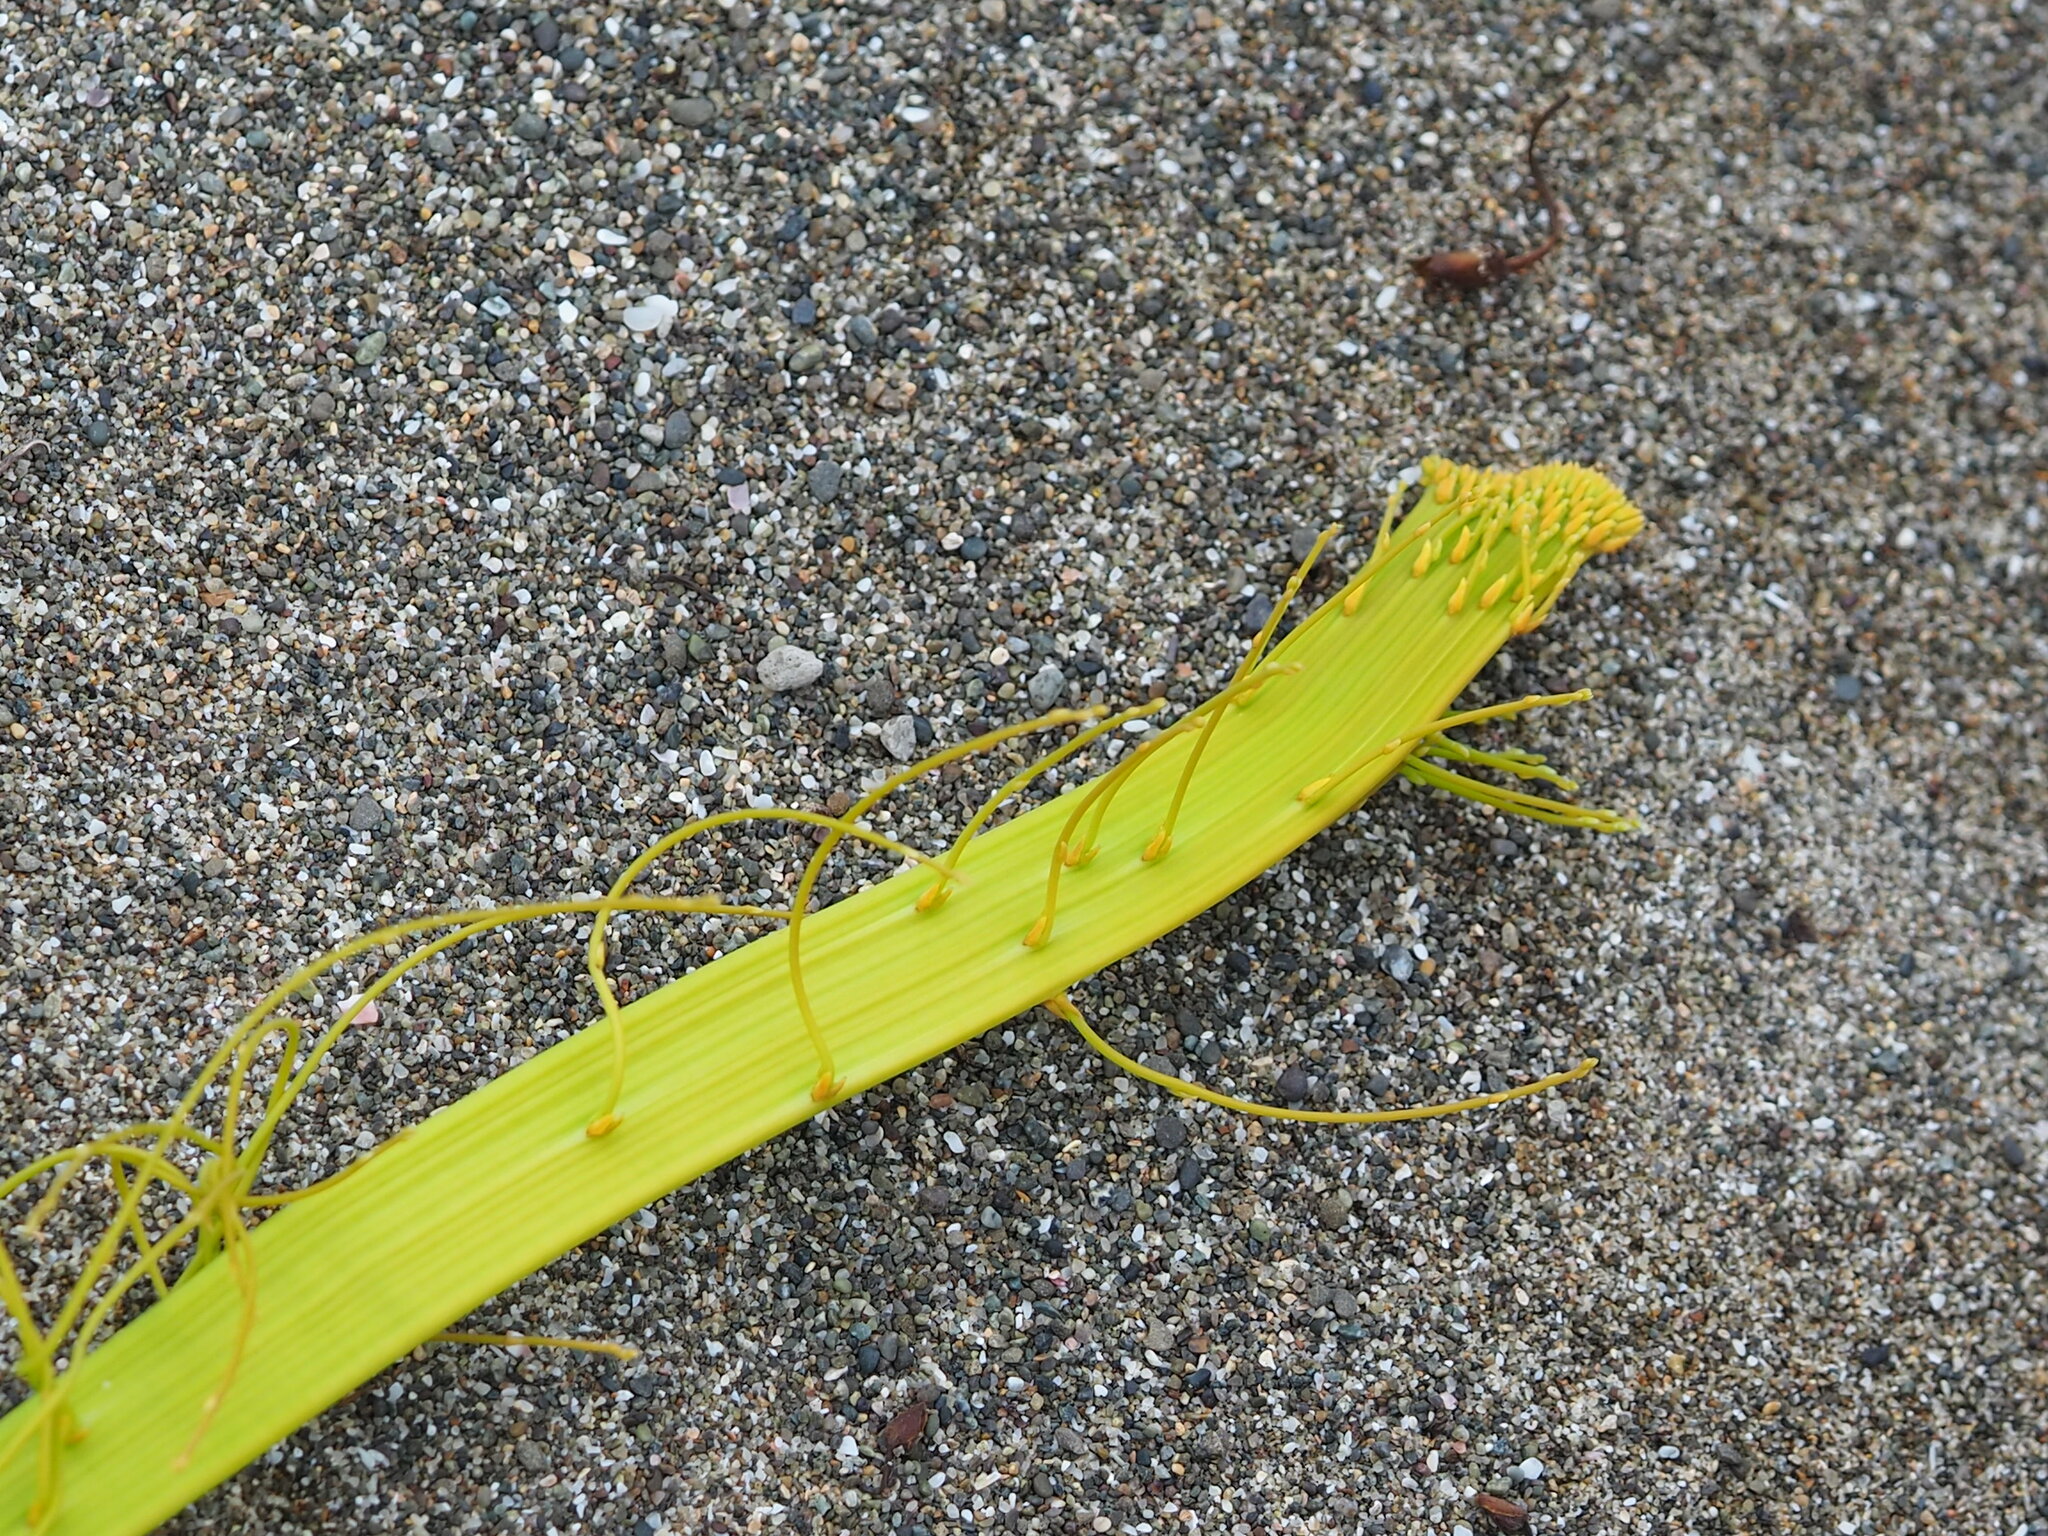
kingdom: Plantae
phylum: Tracheophyta
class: Magnoliopsida
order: Laurales
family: Lauraceae
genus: Cassytha
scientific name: Cassytha filiformis
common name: Dodder-laurel
